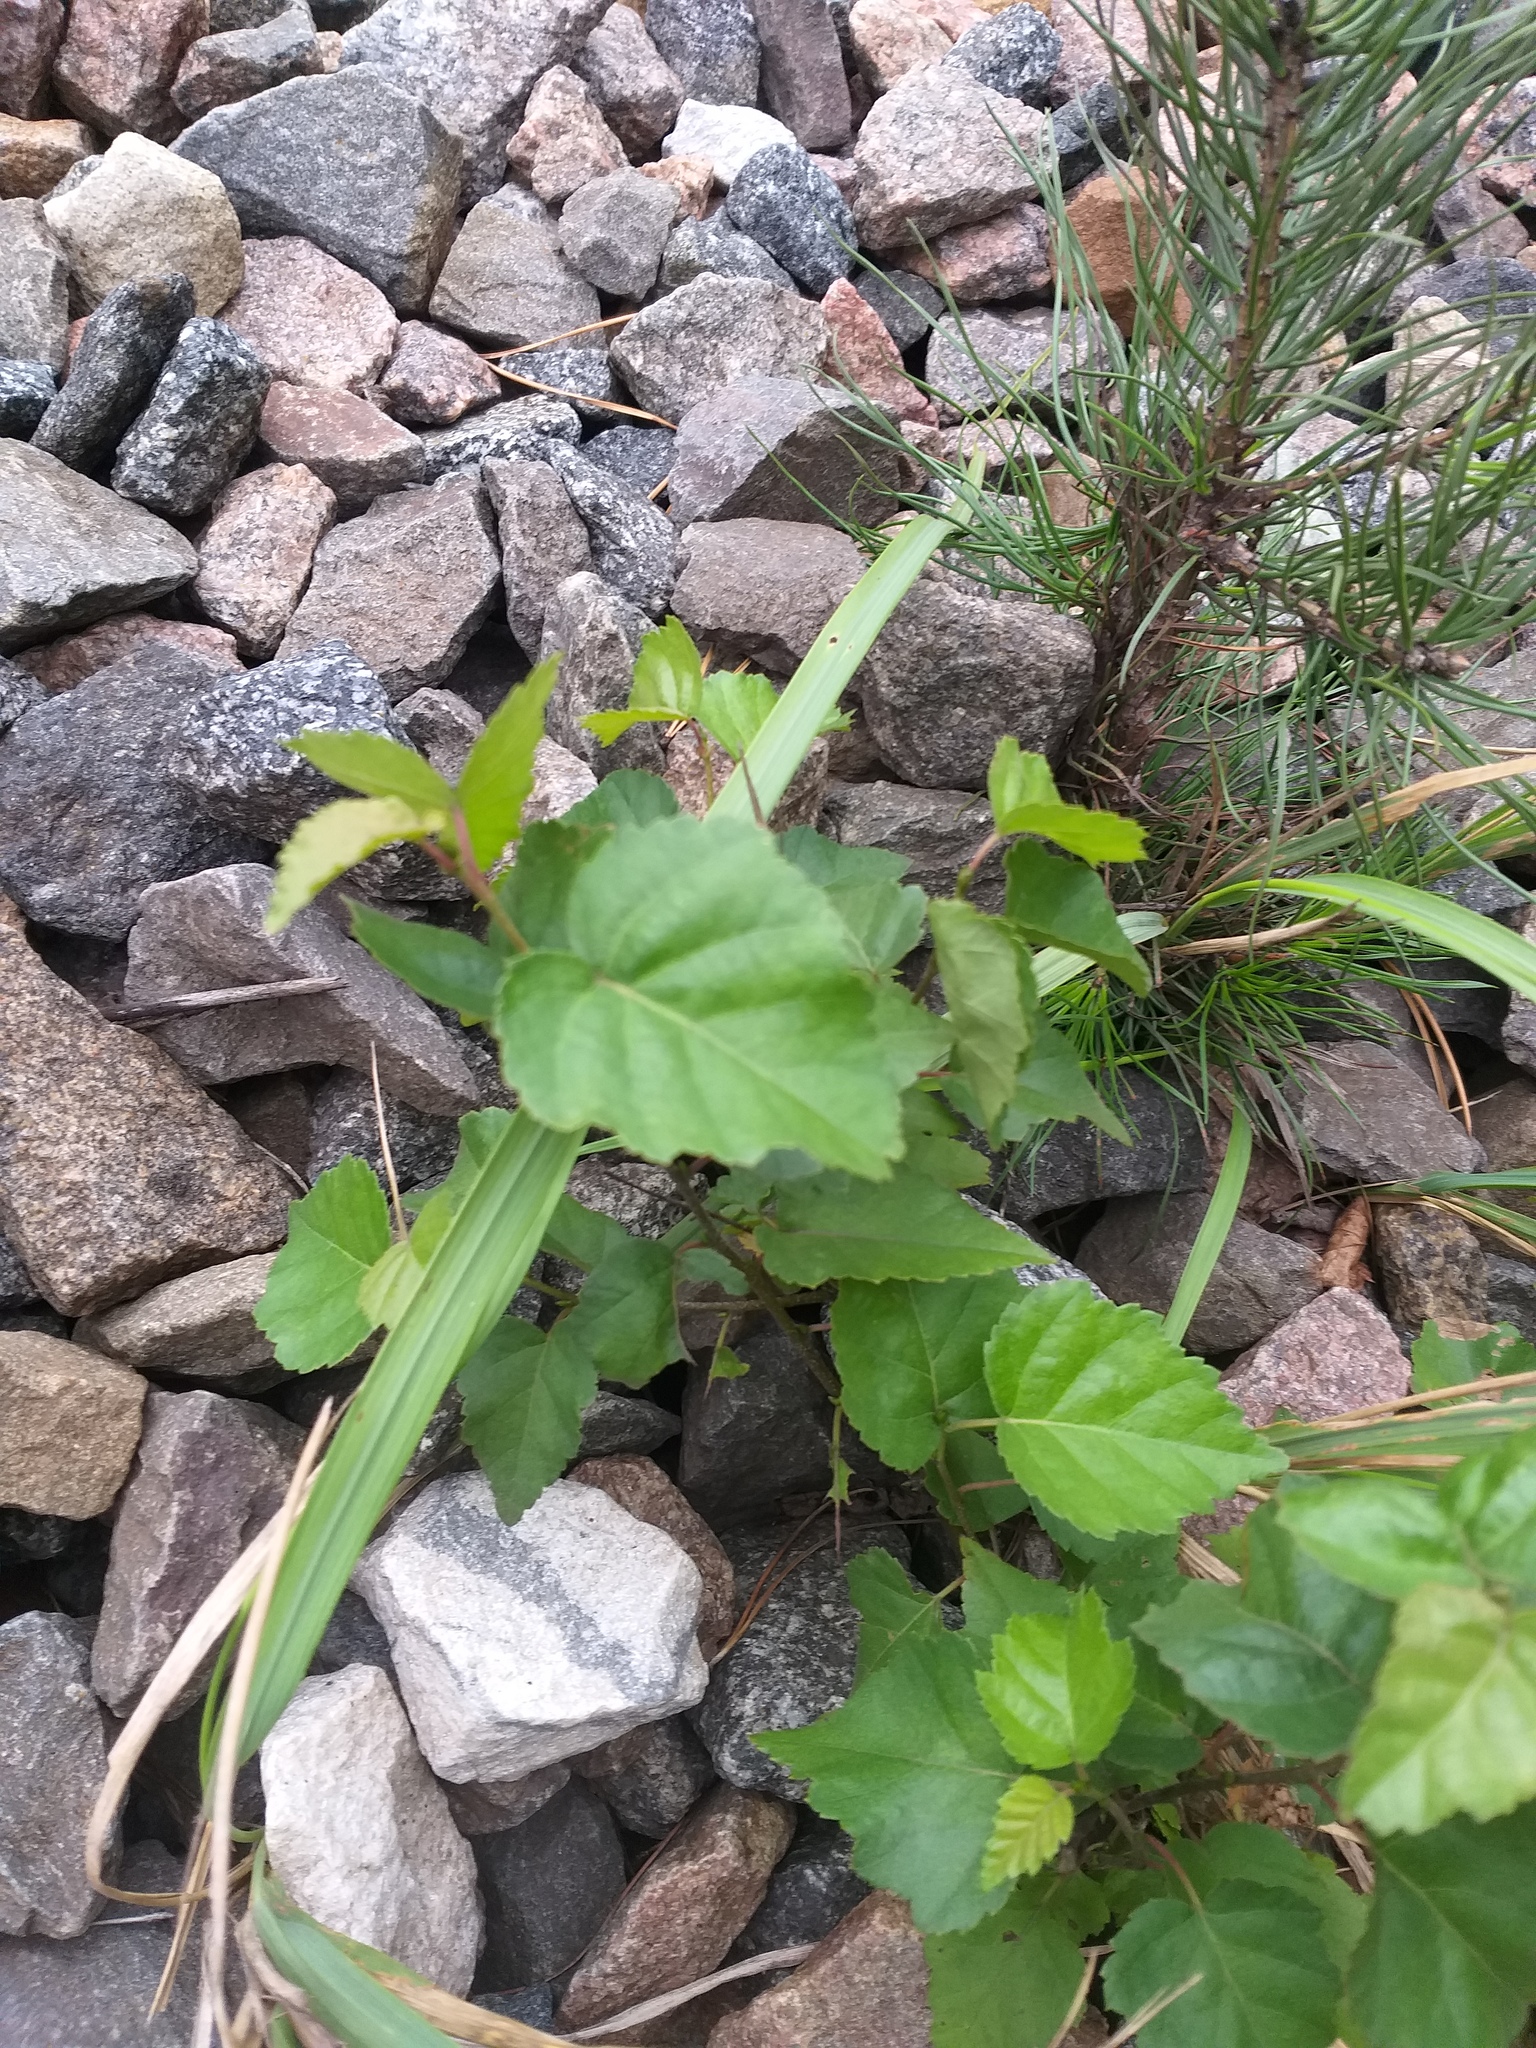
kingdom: Plantae
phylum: Tracheophyta
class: Magnoliopsida
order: Fagales
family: Betulaceae
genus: Betula
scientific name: Betula pubescens
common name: Downy birch
